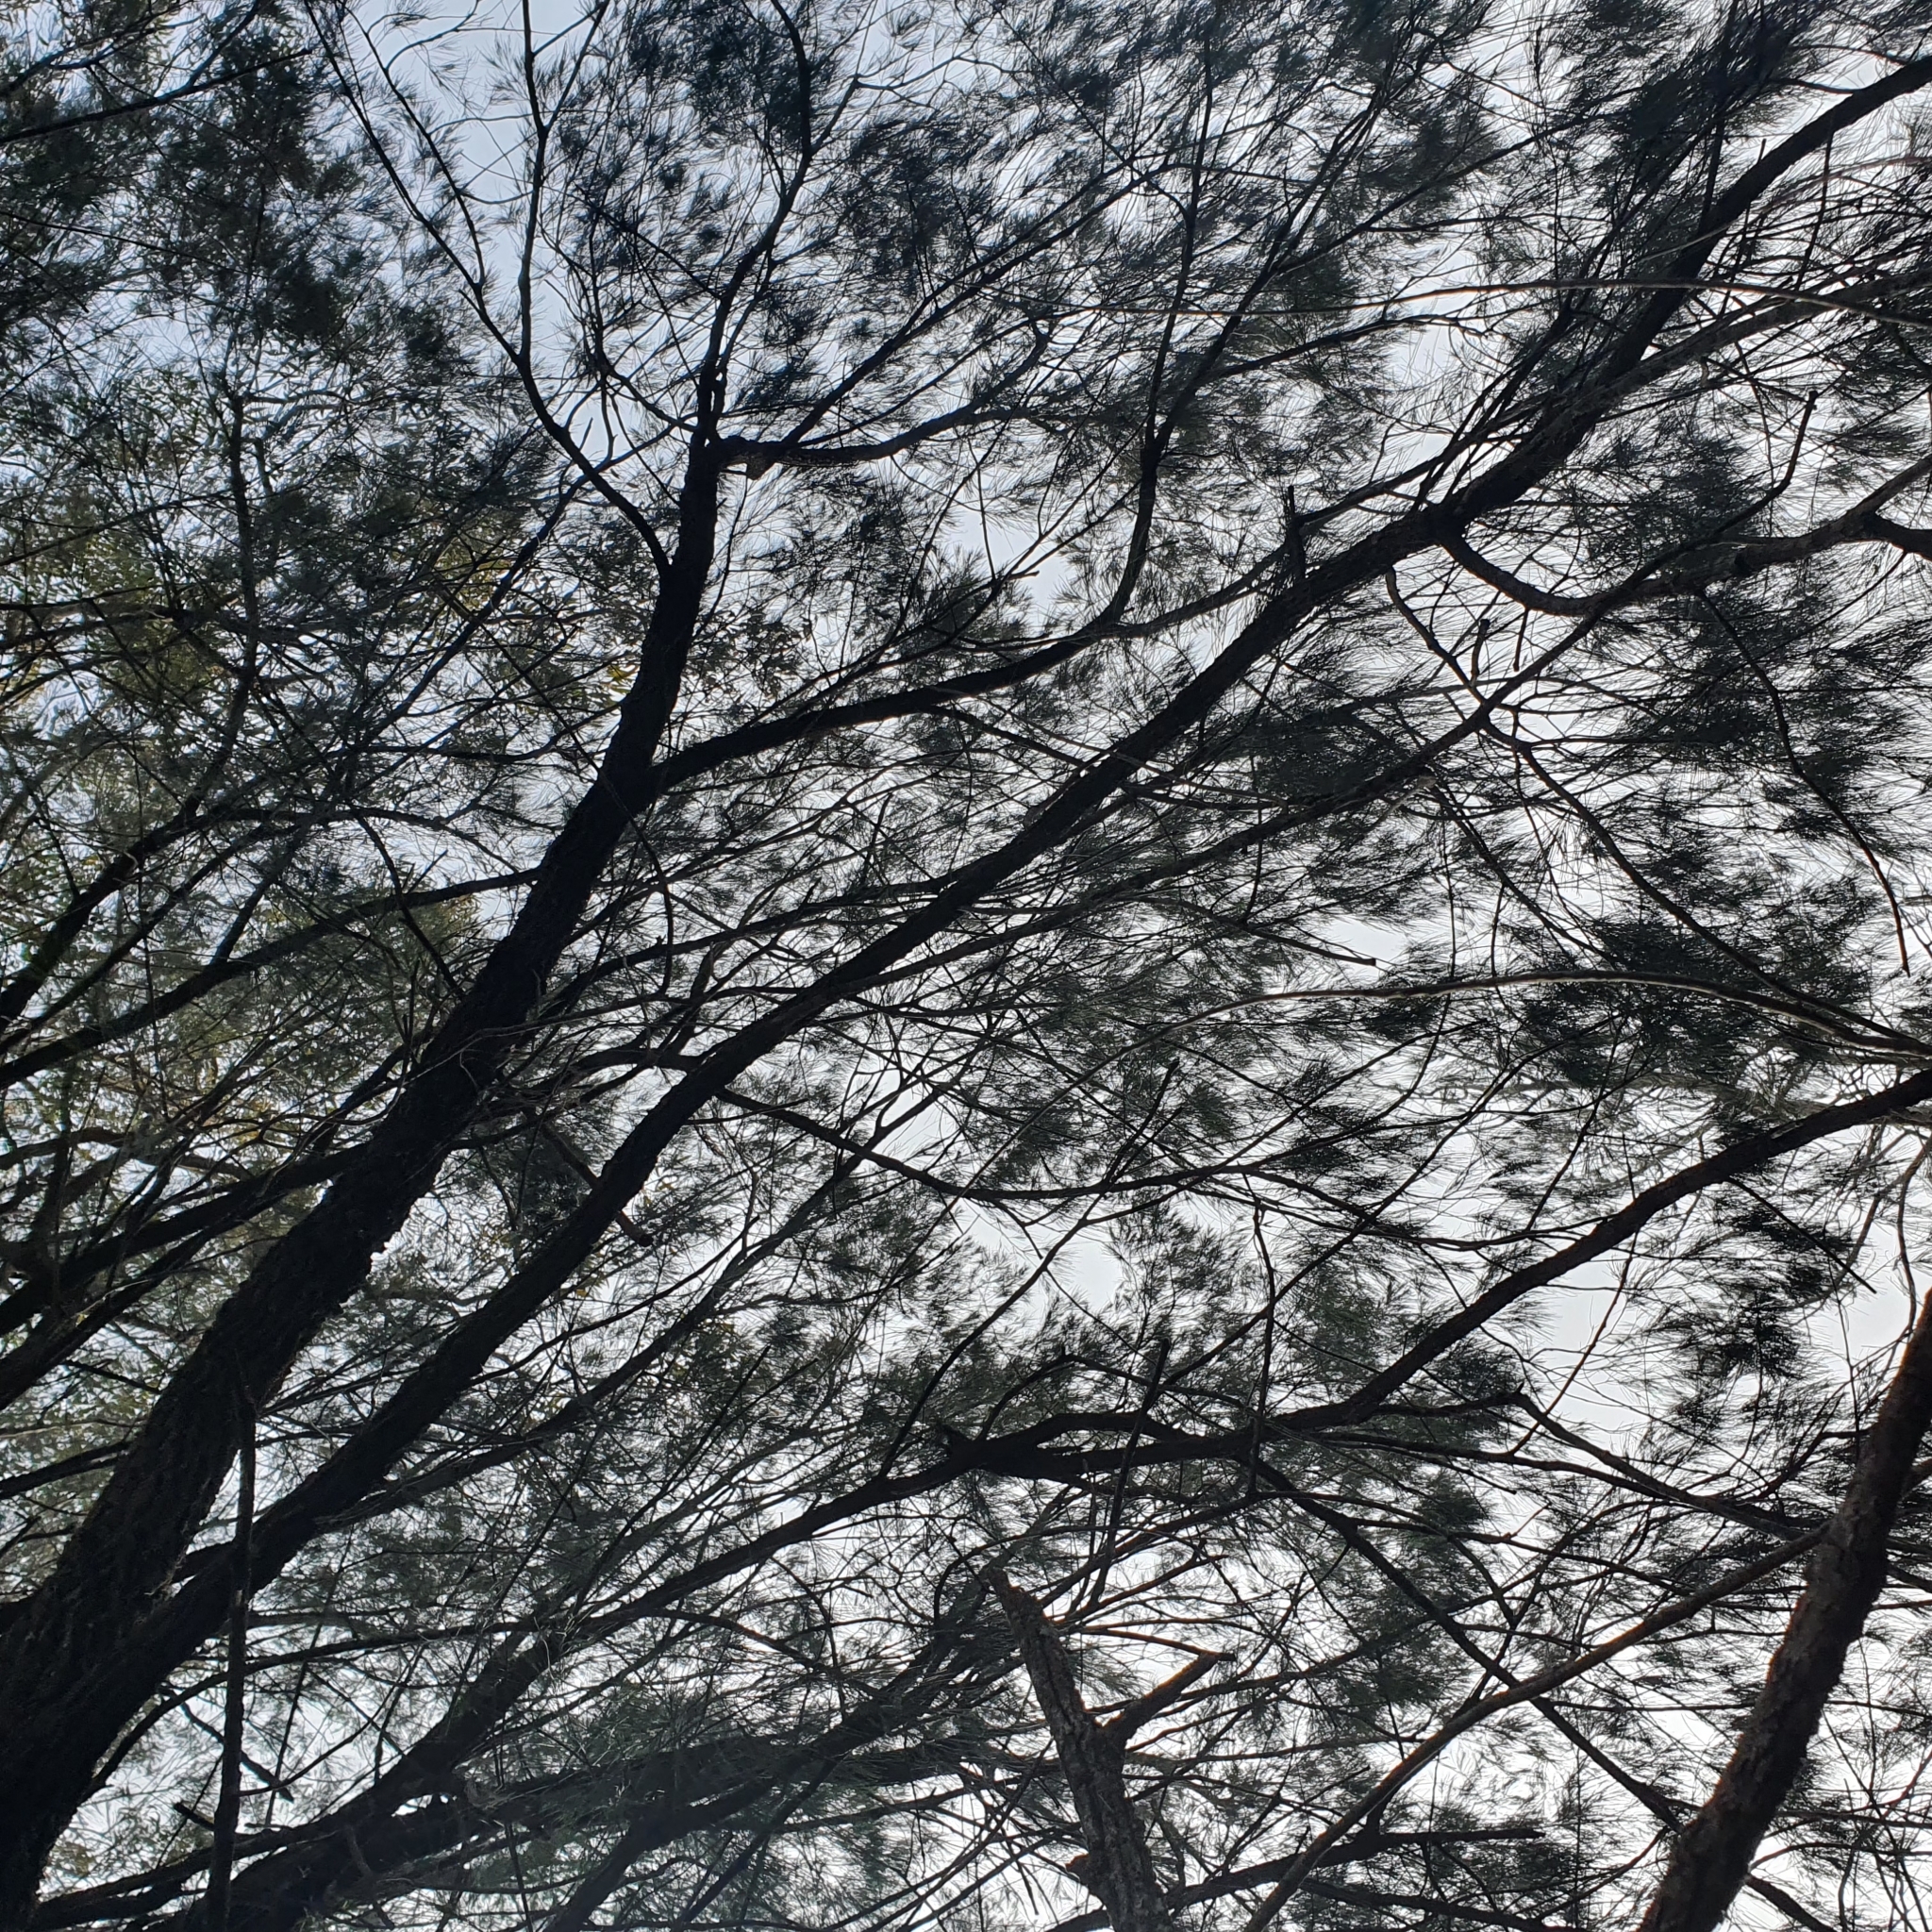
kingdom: Plantae
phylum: Tracheophyta
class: Magnoliopsida
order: Fagales
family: Casuarinaceae
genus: Allocasuarina
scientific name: Allocasuarina torulosa
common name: Forest-oak
